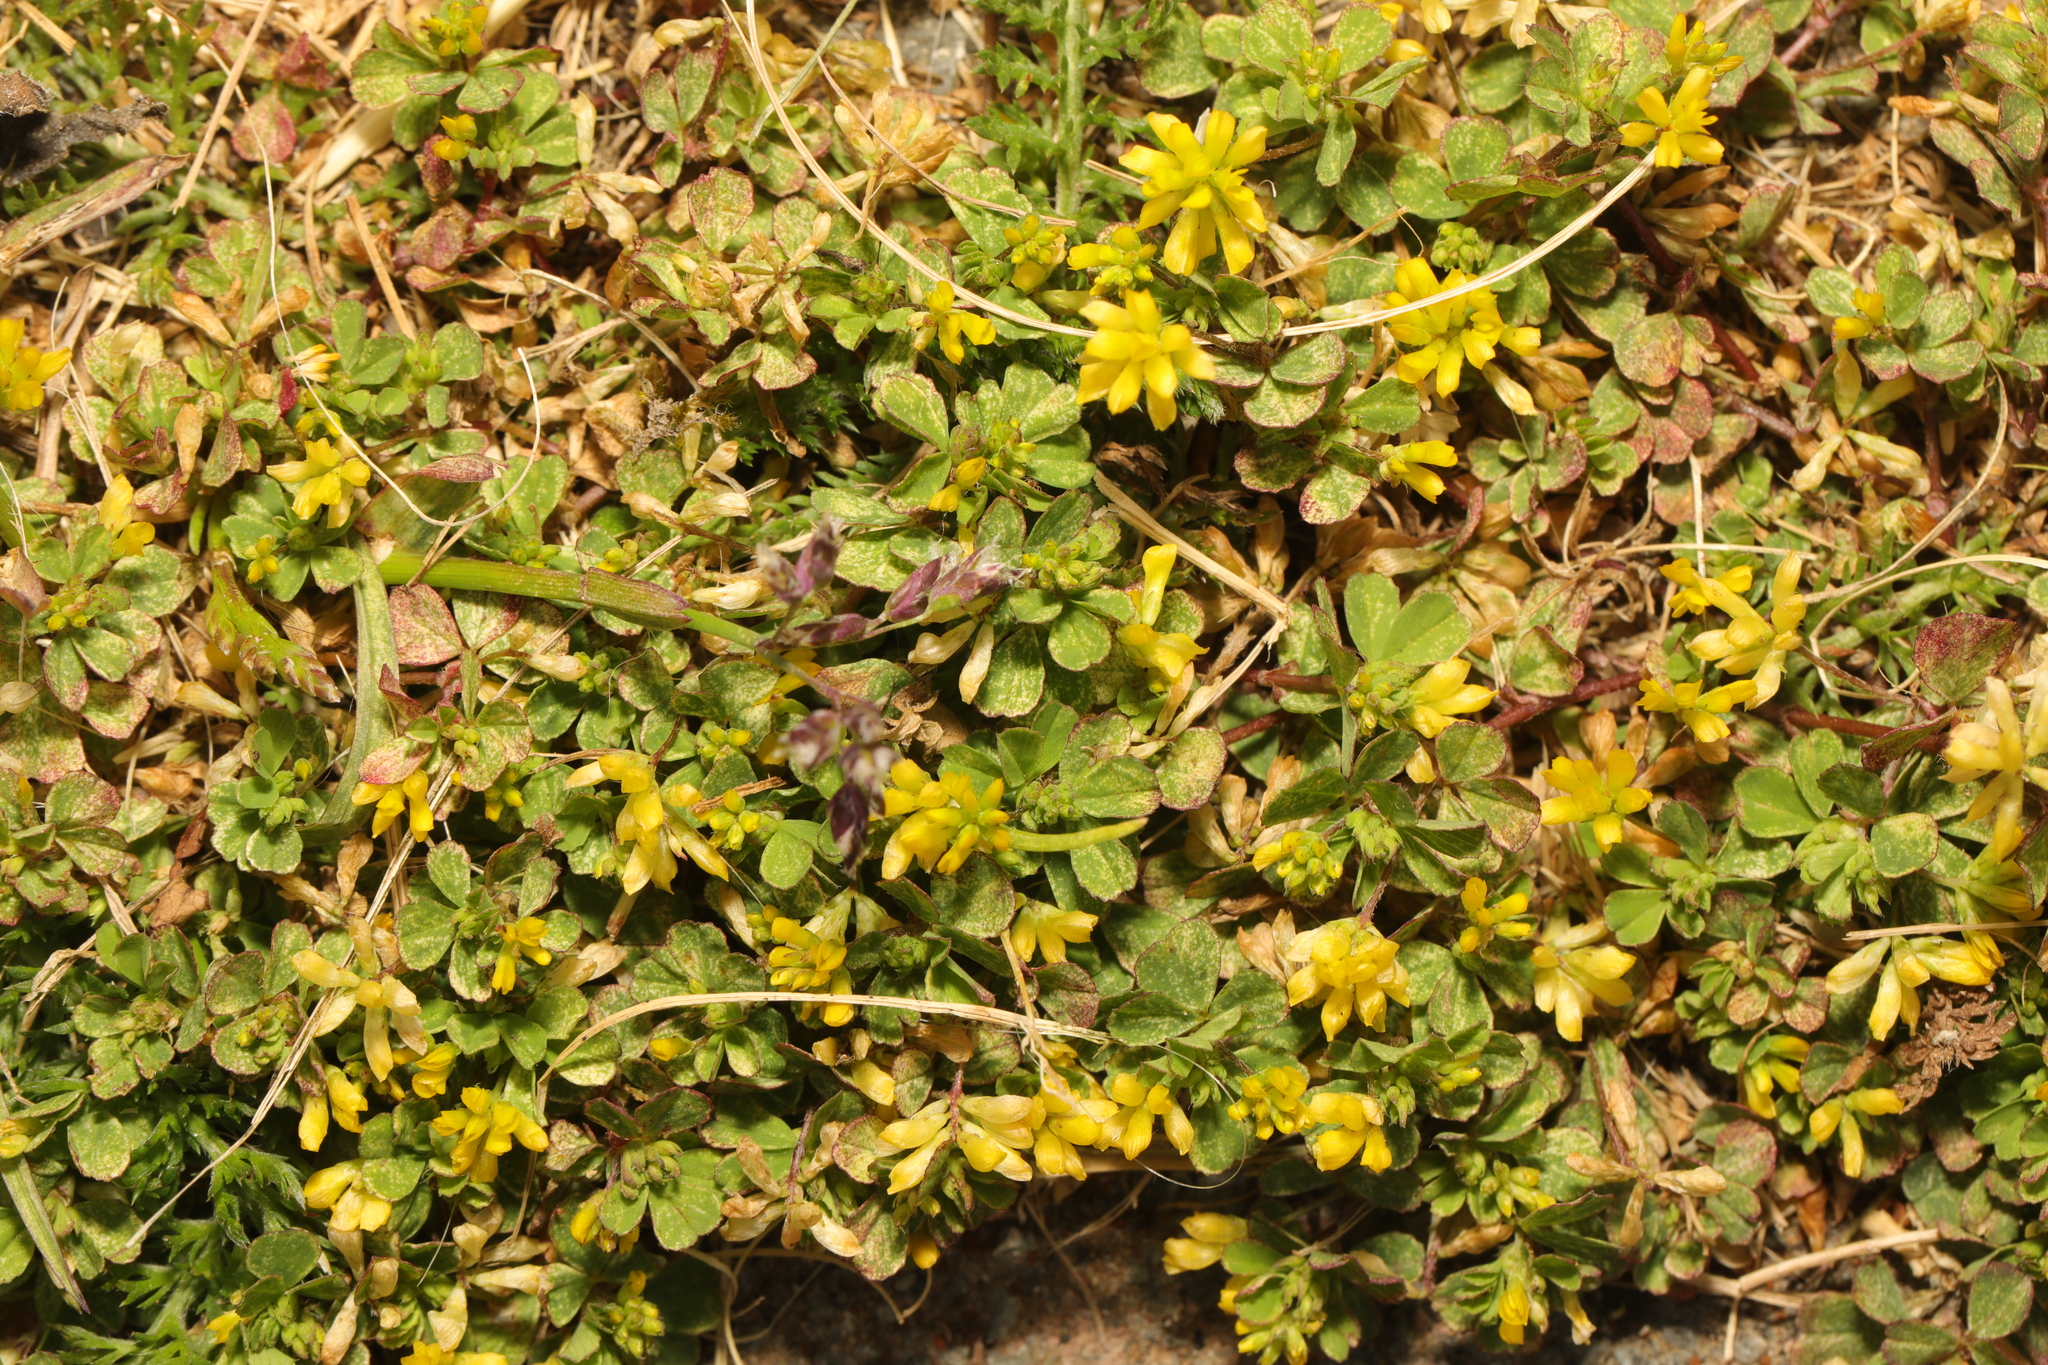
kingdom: Plantae
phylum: Tracheophyta
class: Magnoliopsida
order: Fabales
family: Fabaceae
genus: Trifolium
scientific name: Trifolium dubium
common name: Suckling clover
